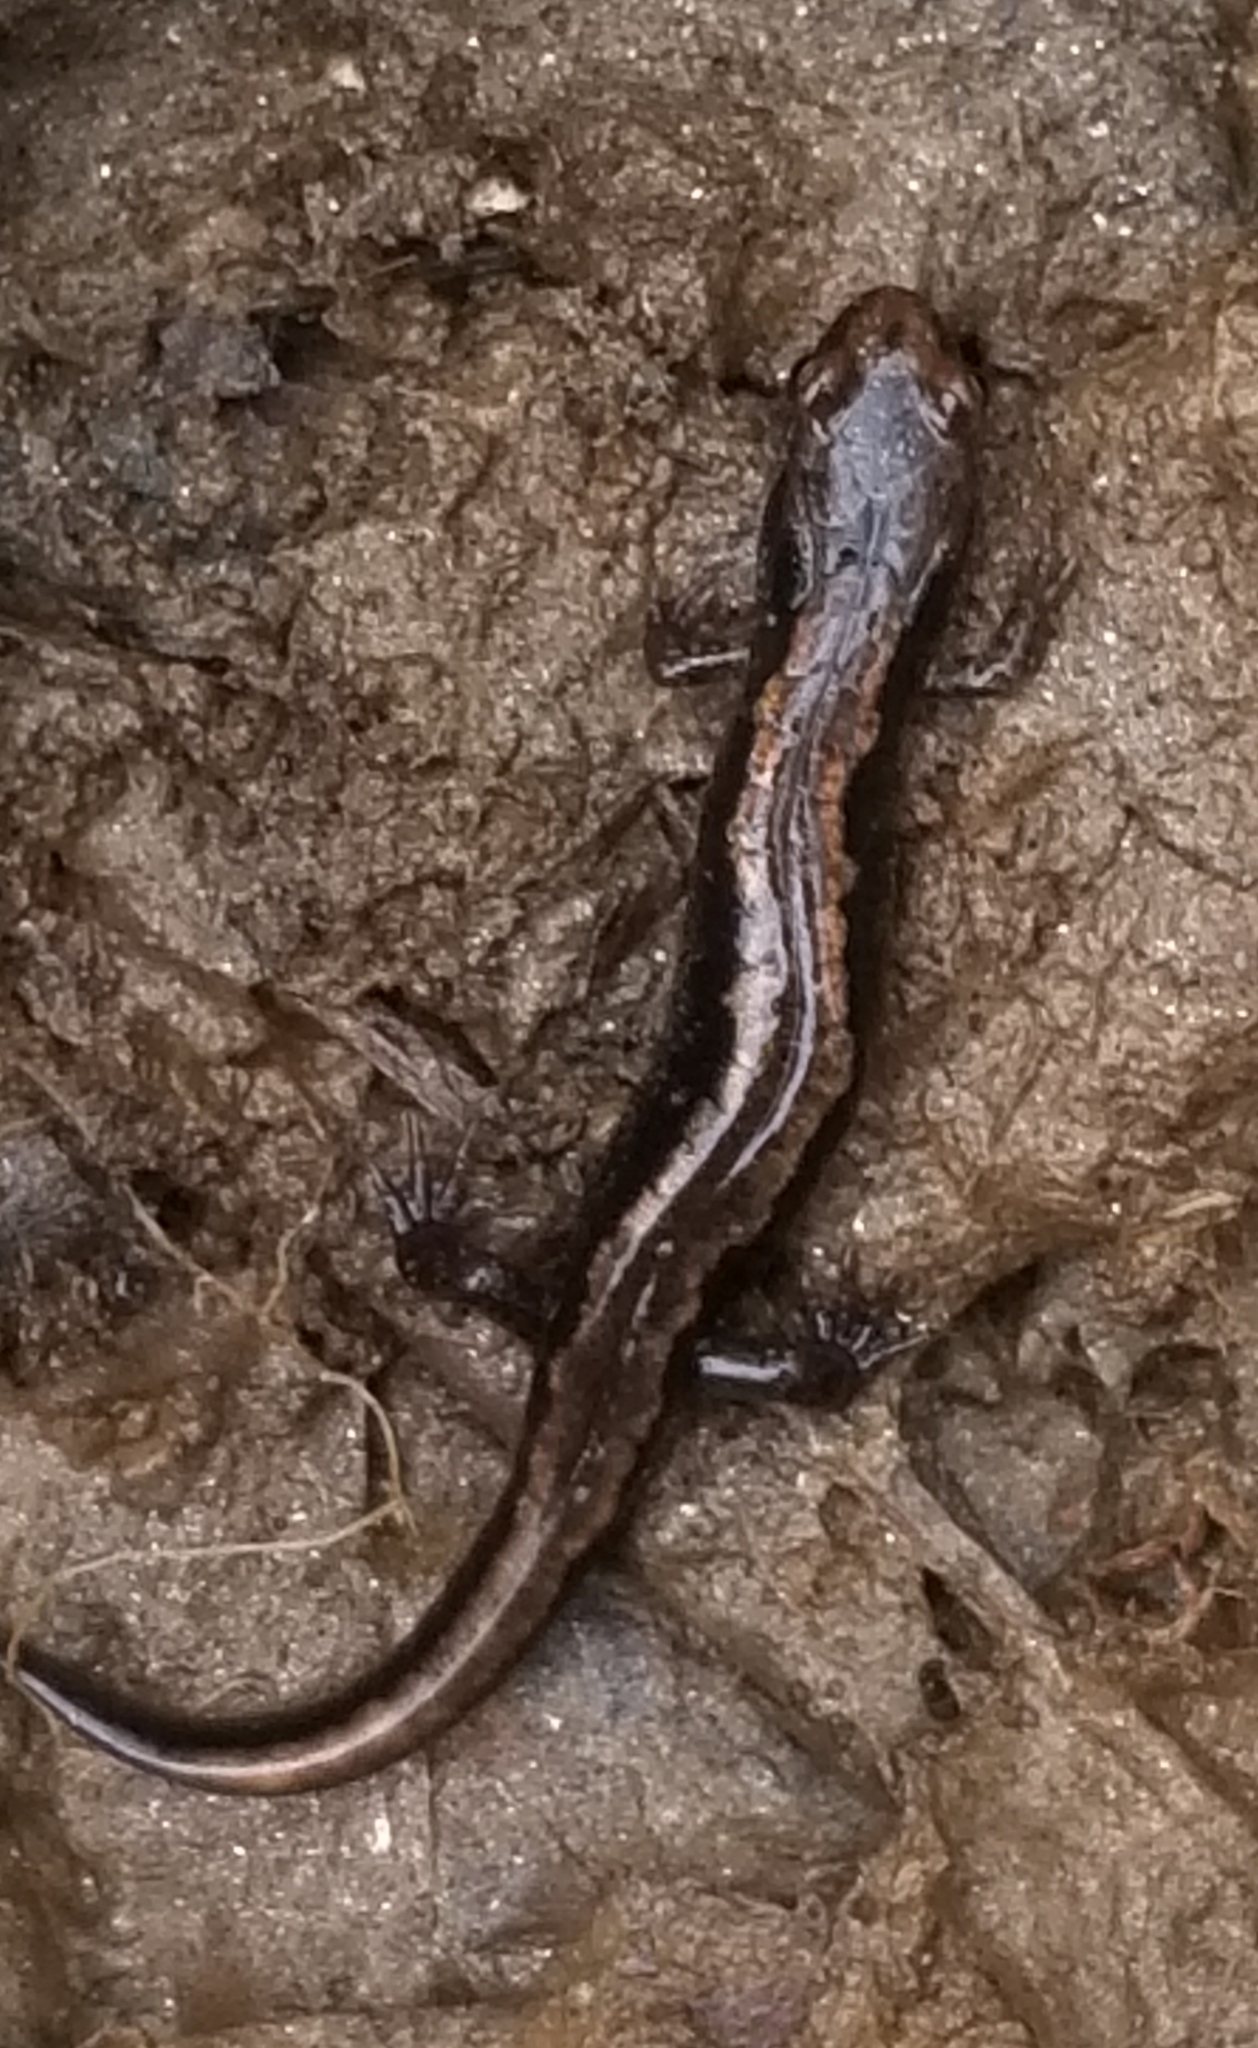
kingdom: Animalia
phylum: Chordata
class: Amphibia
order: Caudata
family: Plethodontidae
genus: Desmognathus
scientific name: Desmognathus carolinensis
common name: Carolina mountain dusky salamander
